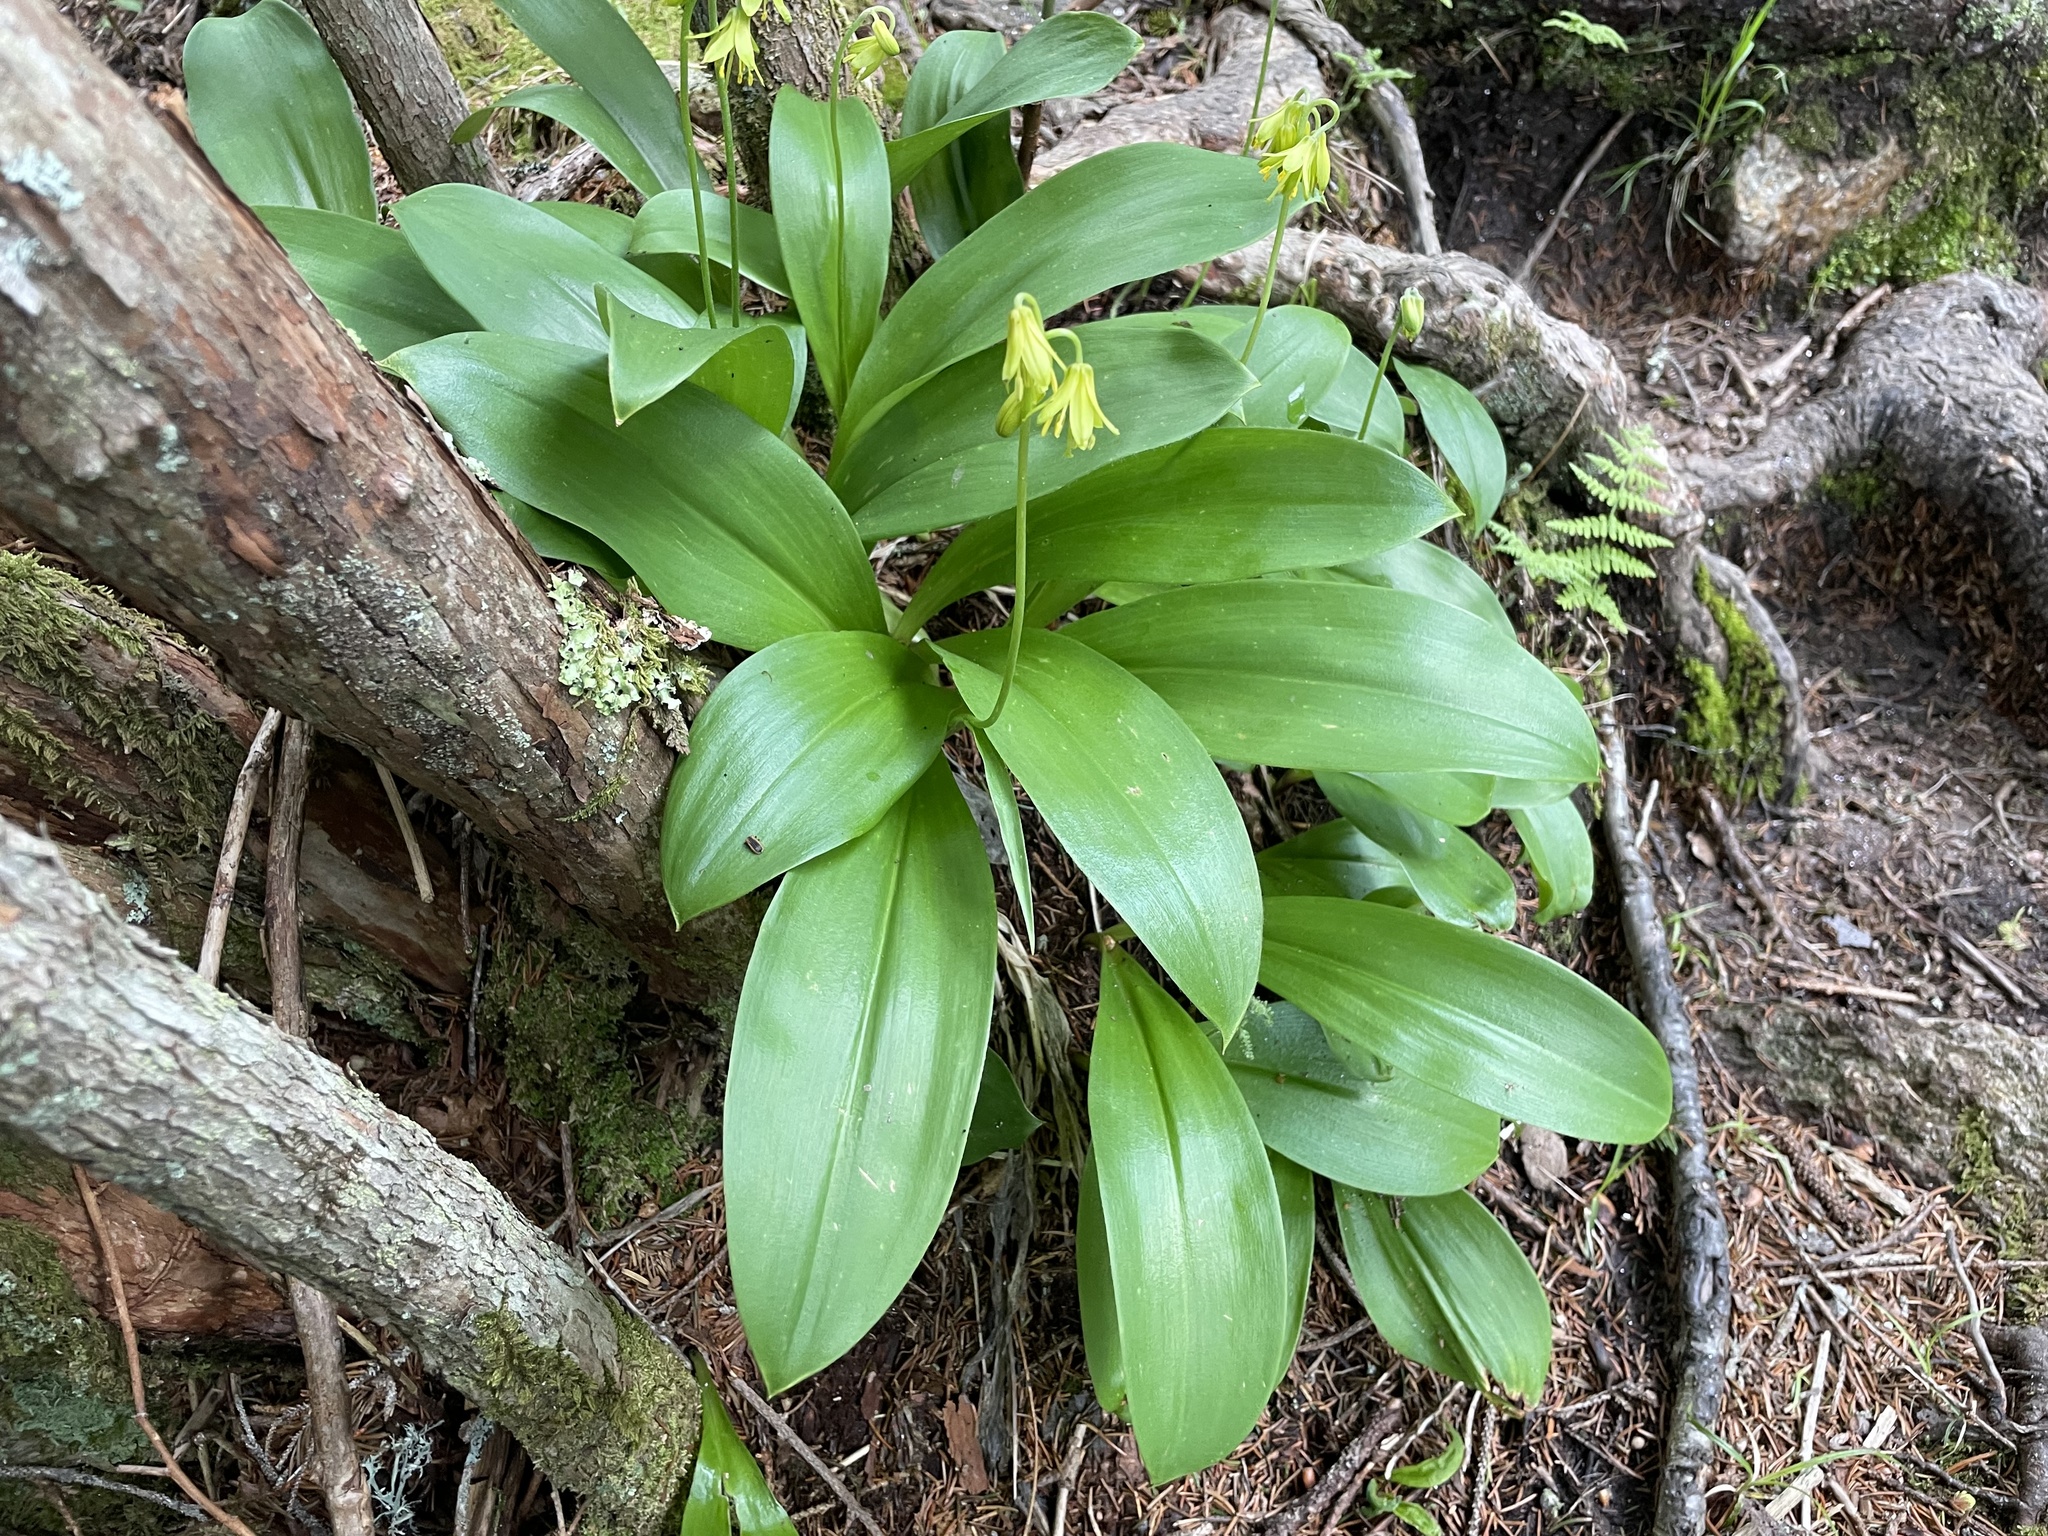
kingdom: Plantae
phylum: Tracheophyta
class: Liliopsida
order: Liliales
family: Liliaceae
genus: Clintonia
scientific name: Clintonia borealis
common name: Yellow clintonia
